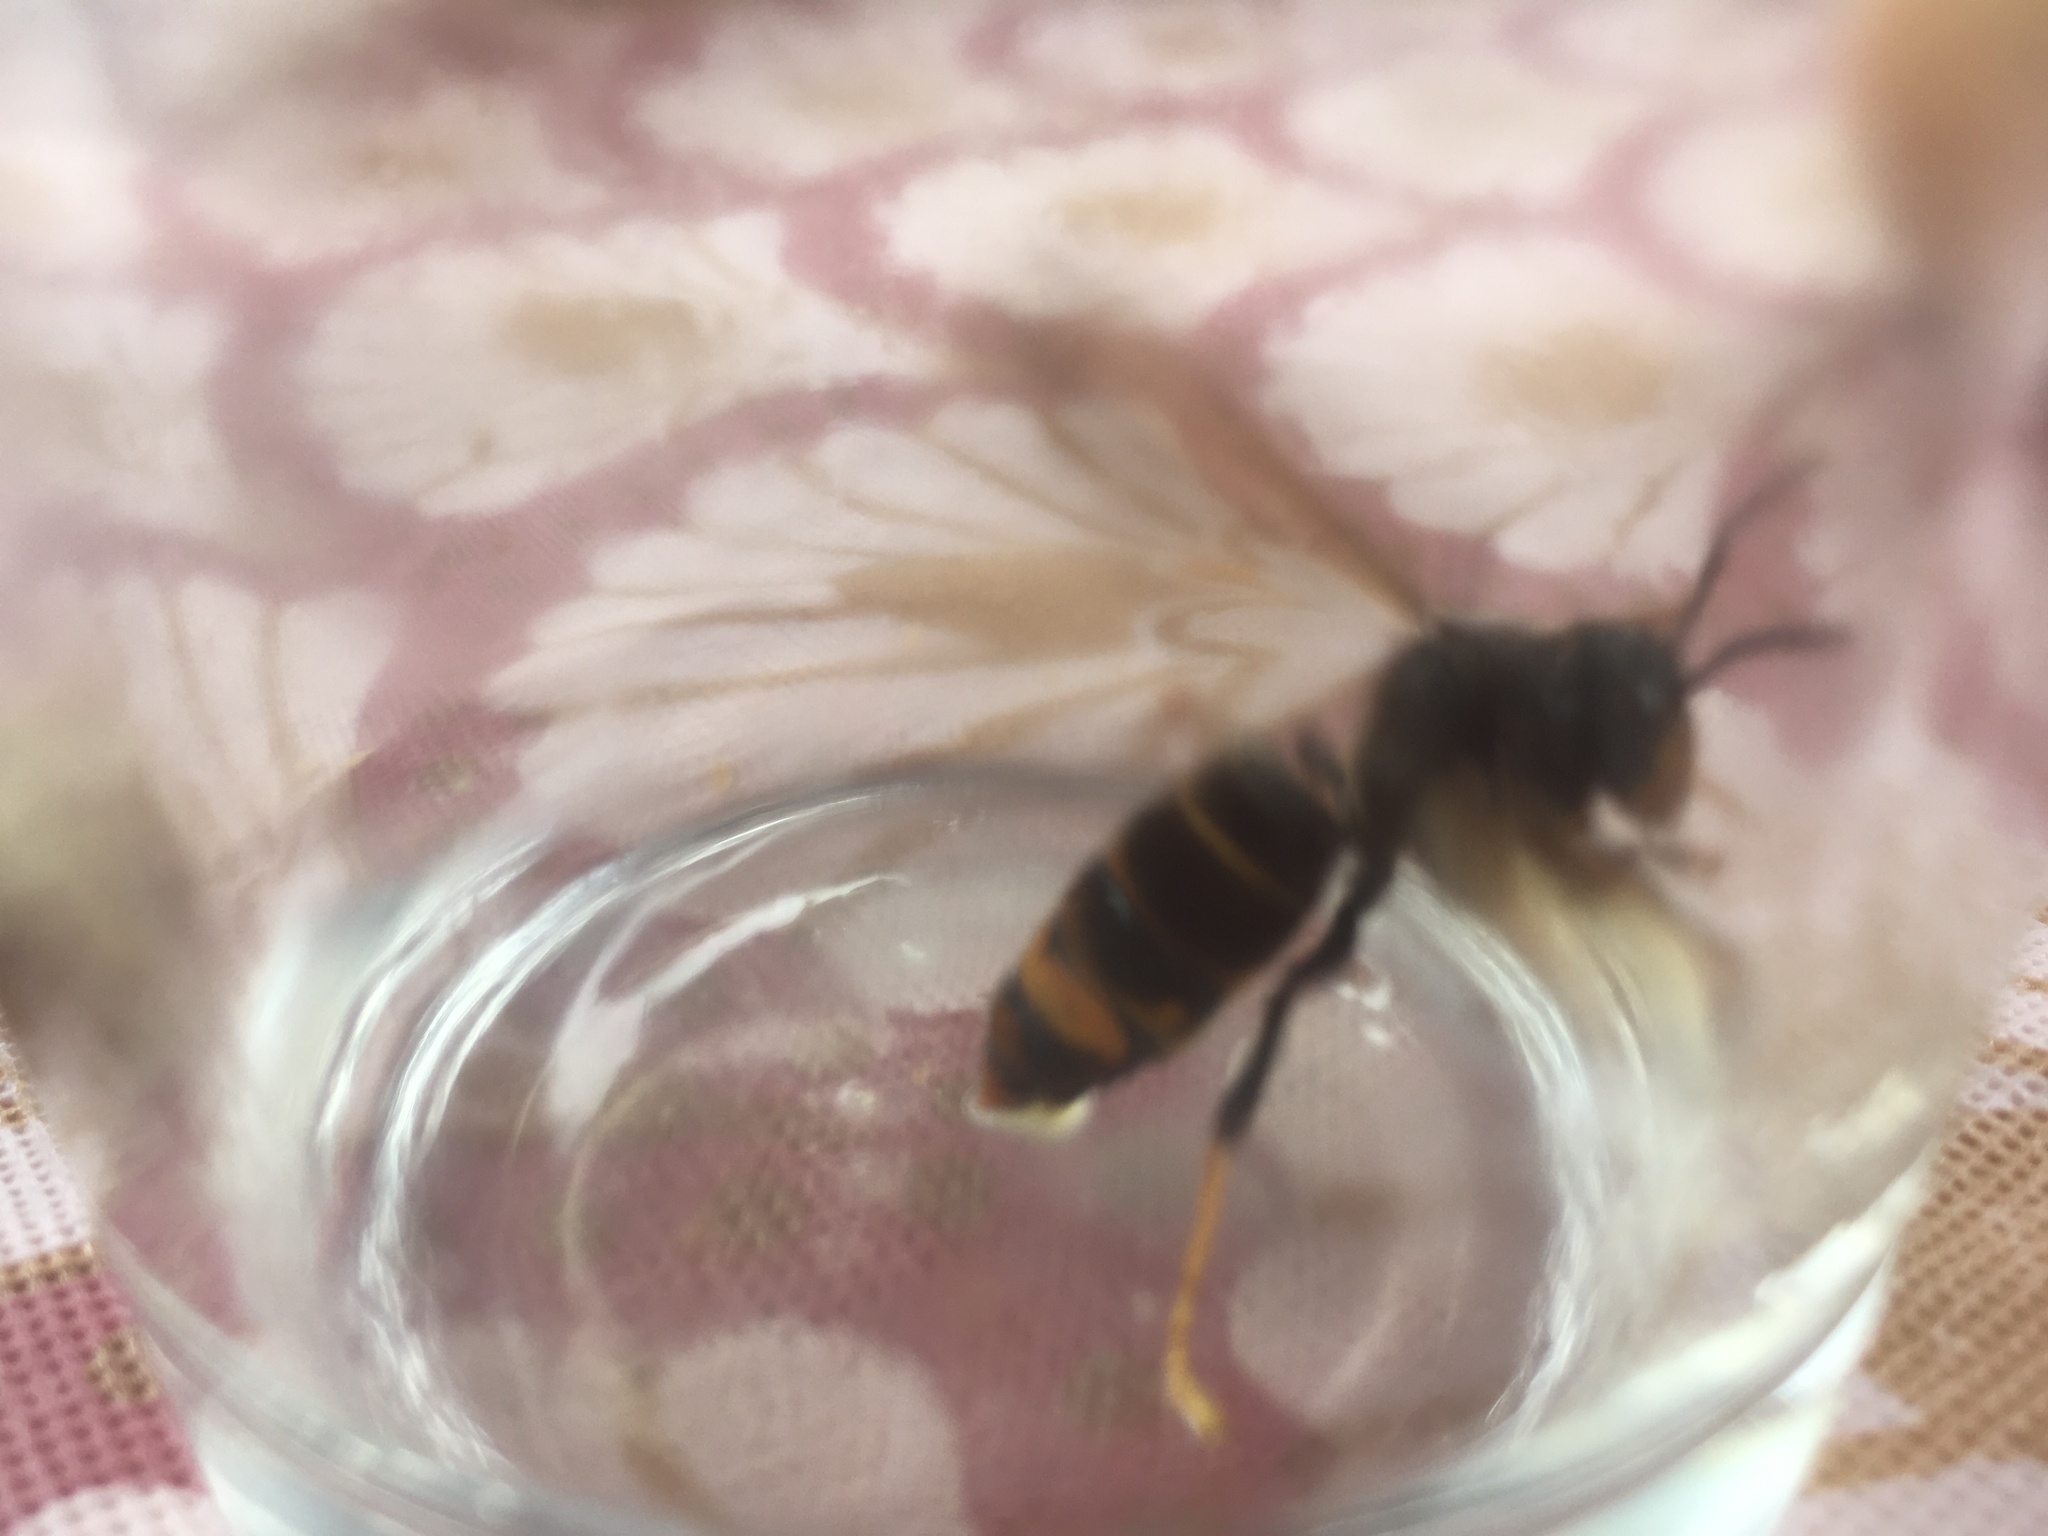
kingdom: Animalia
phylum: Arthropoda
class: Insecta
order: Hymenoptera
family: Vespidae
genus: Vespa
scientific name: Vespa velutina
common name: Asian hornet
